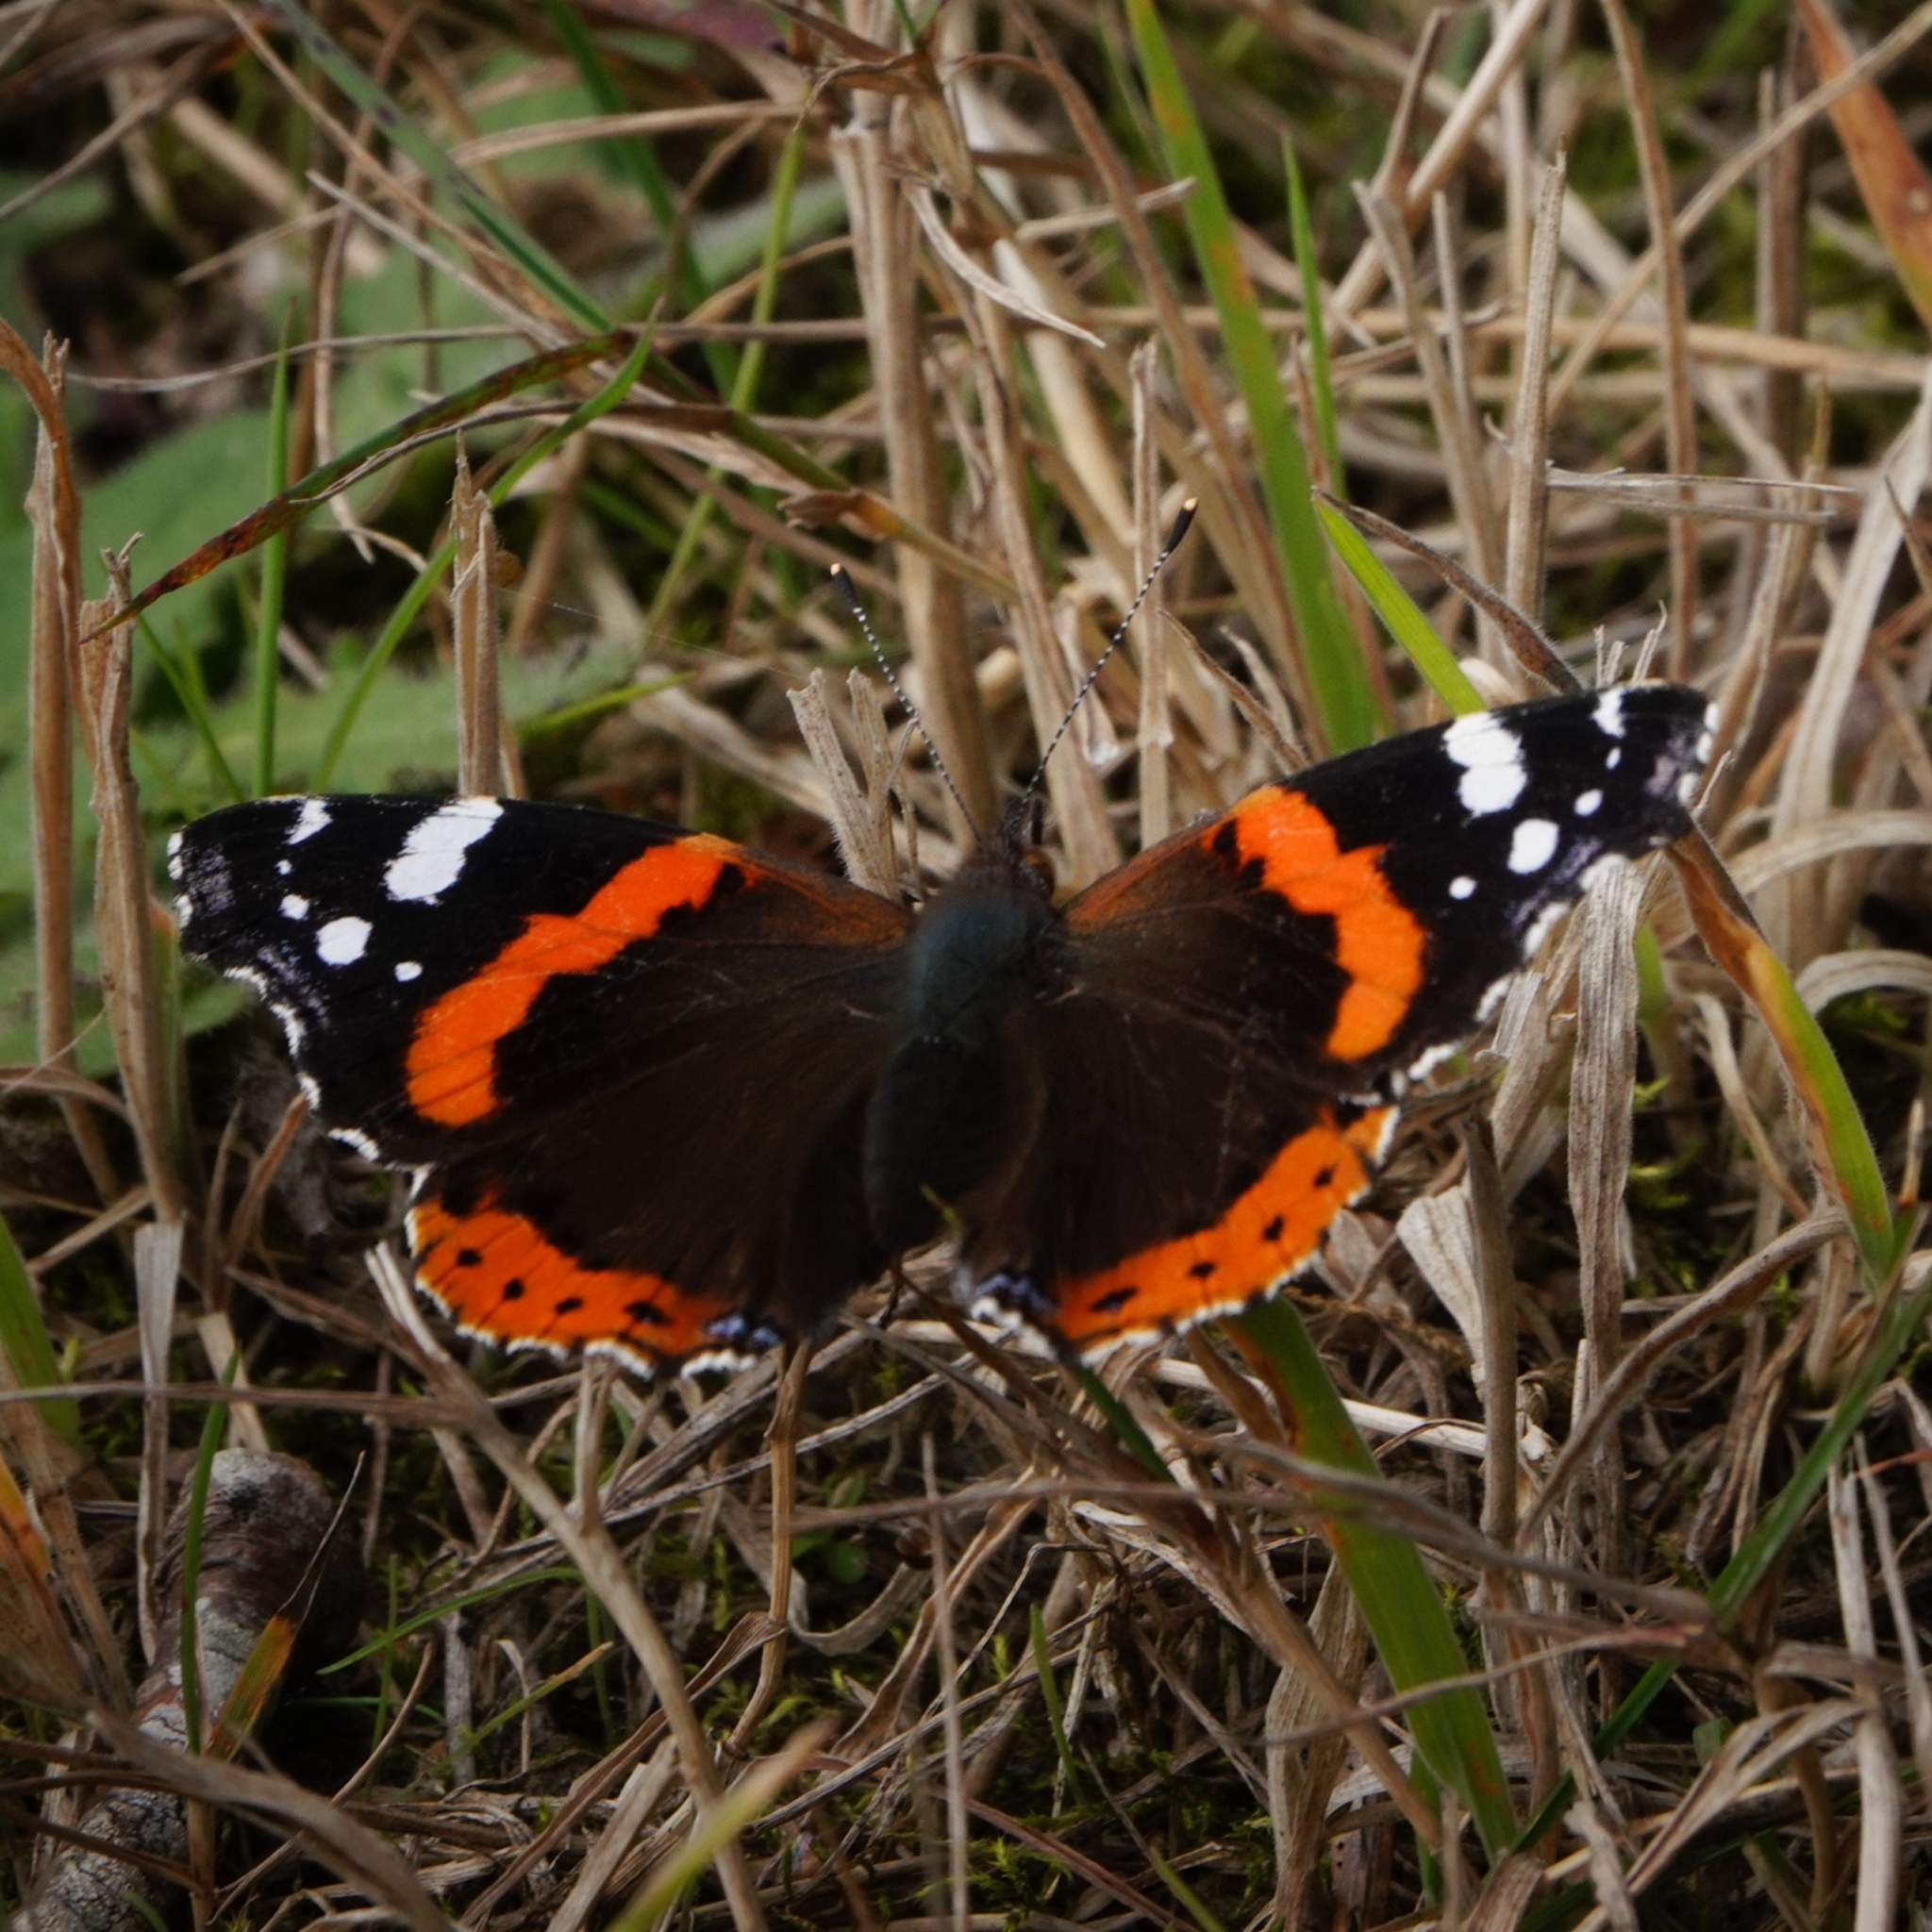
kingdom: Animalia
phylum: Arthropoda
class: Insecta
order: Lepidoptera
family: Nymphalidae
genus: Vanessa
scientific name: Vanessa atalanta
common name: Red admiral
